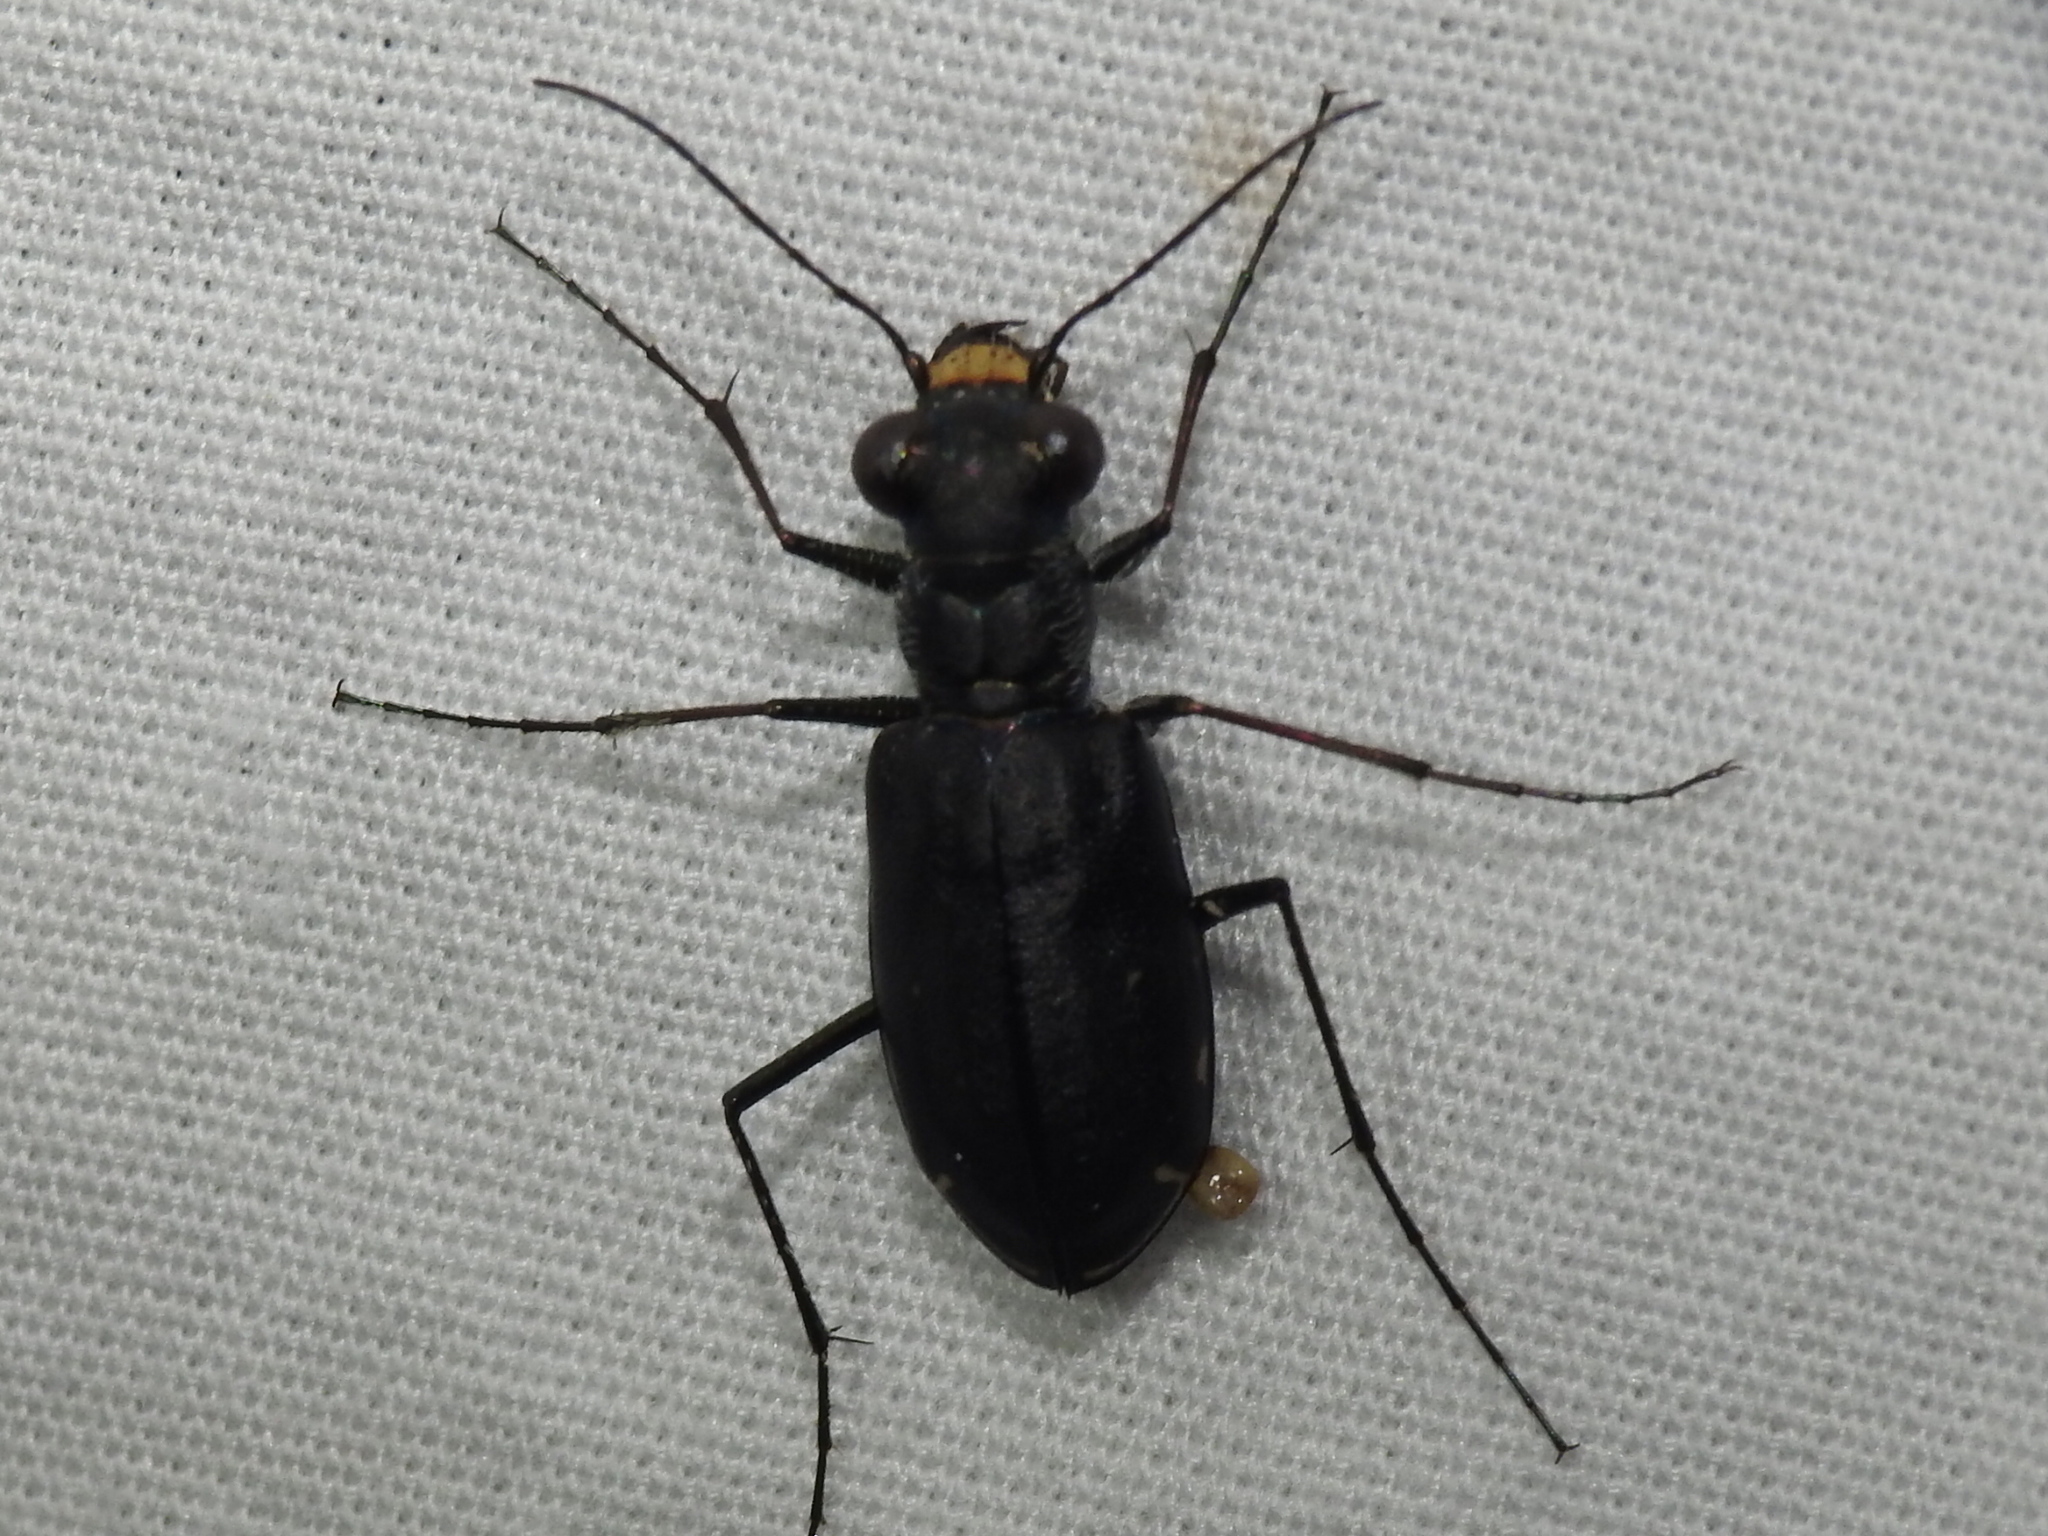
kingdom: Animalia
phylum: Arthropoda
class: Insecta
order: Coleoptera
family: Carabidae
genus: Cicindela
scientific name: Cicindela punctulata
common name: Punctured tiger beetle
